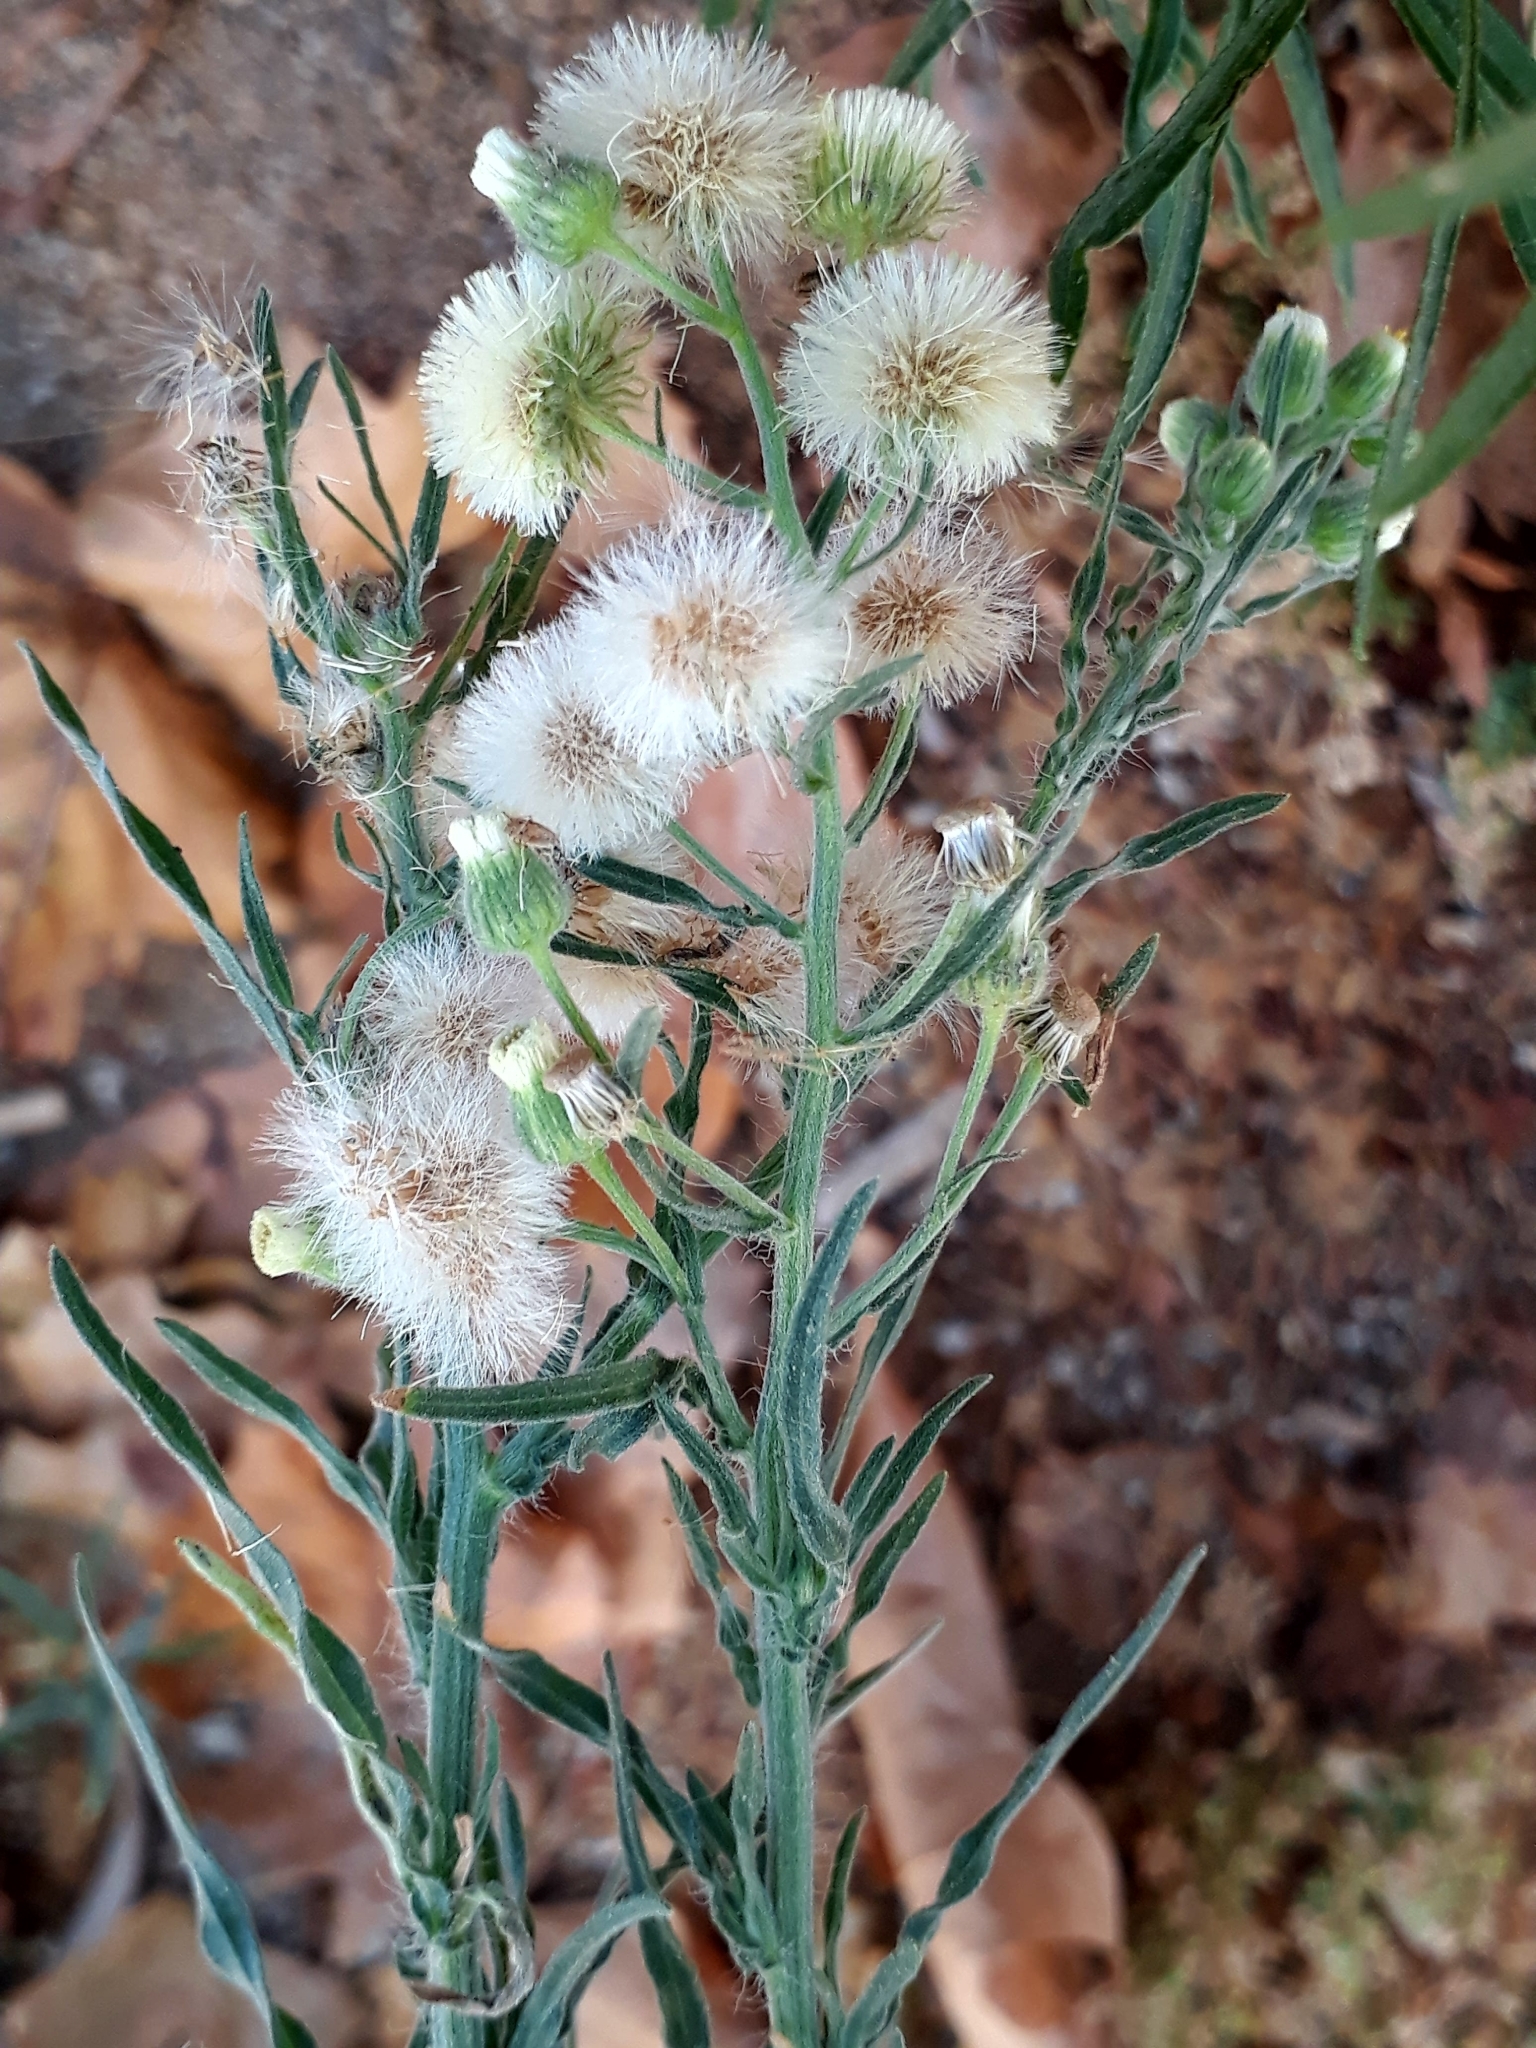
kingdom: Plantae
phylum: Tracheophyta
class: Magnoliopsida
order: Asterales
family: Asteraceae
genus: Erigeron
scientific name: Erigeron bonariensis
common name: Argentine fleabane
